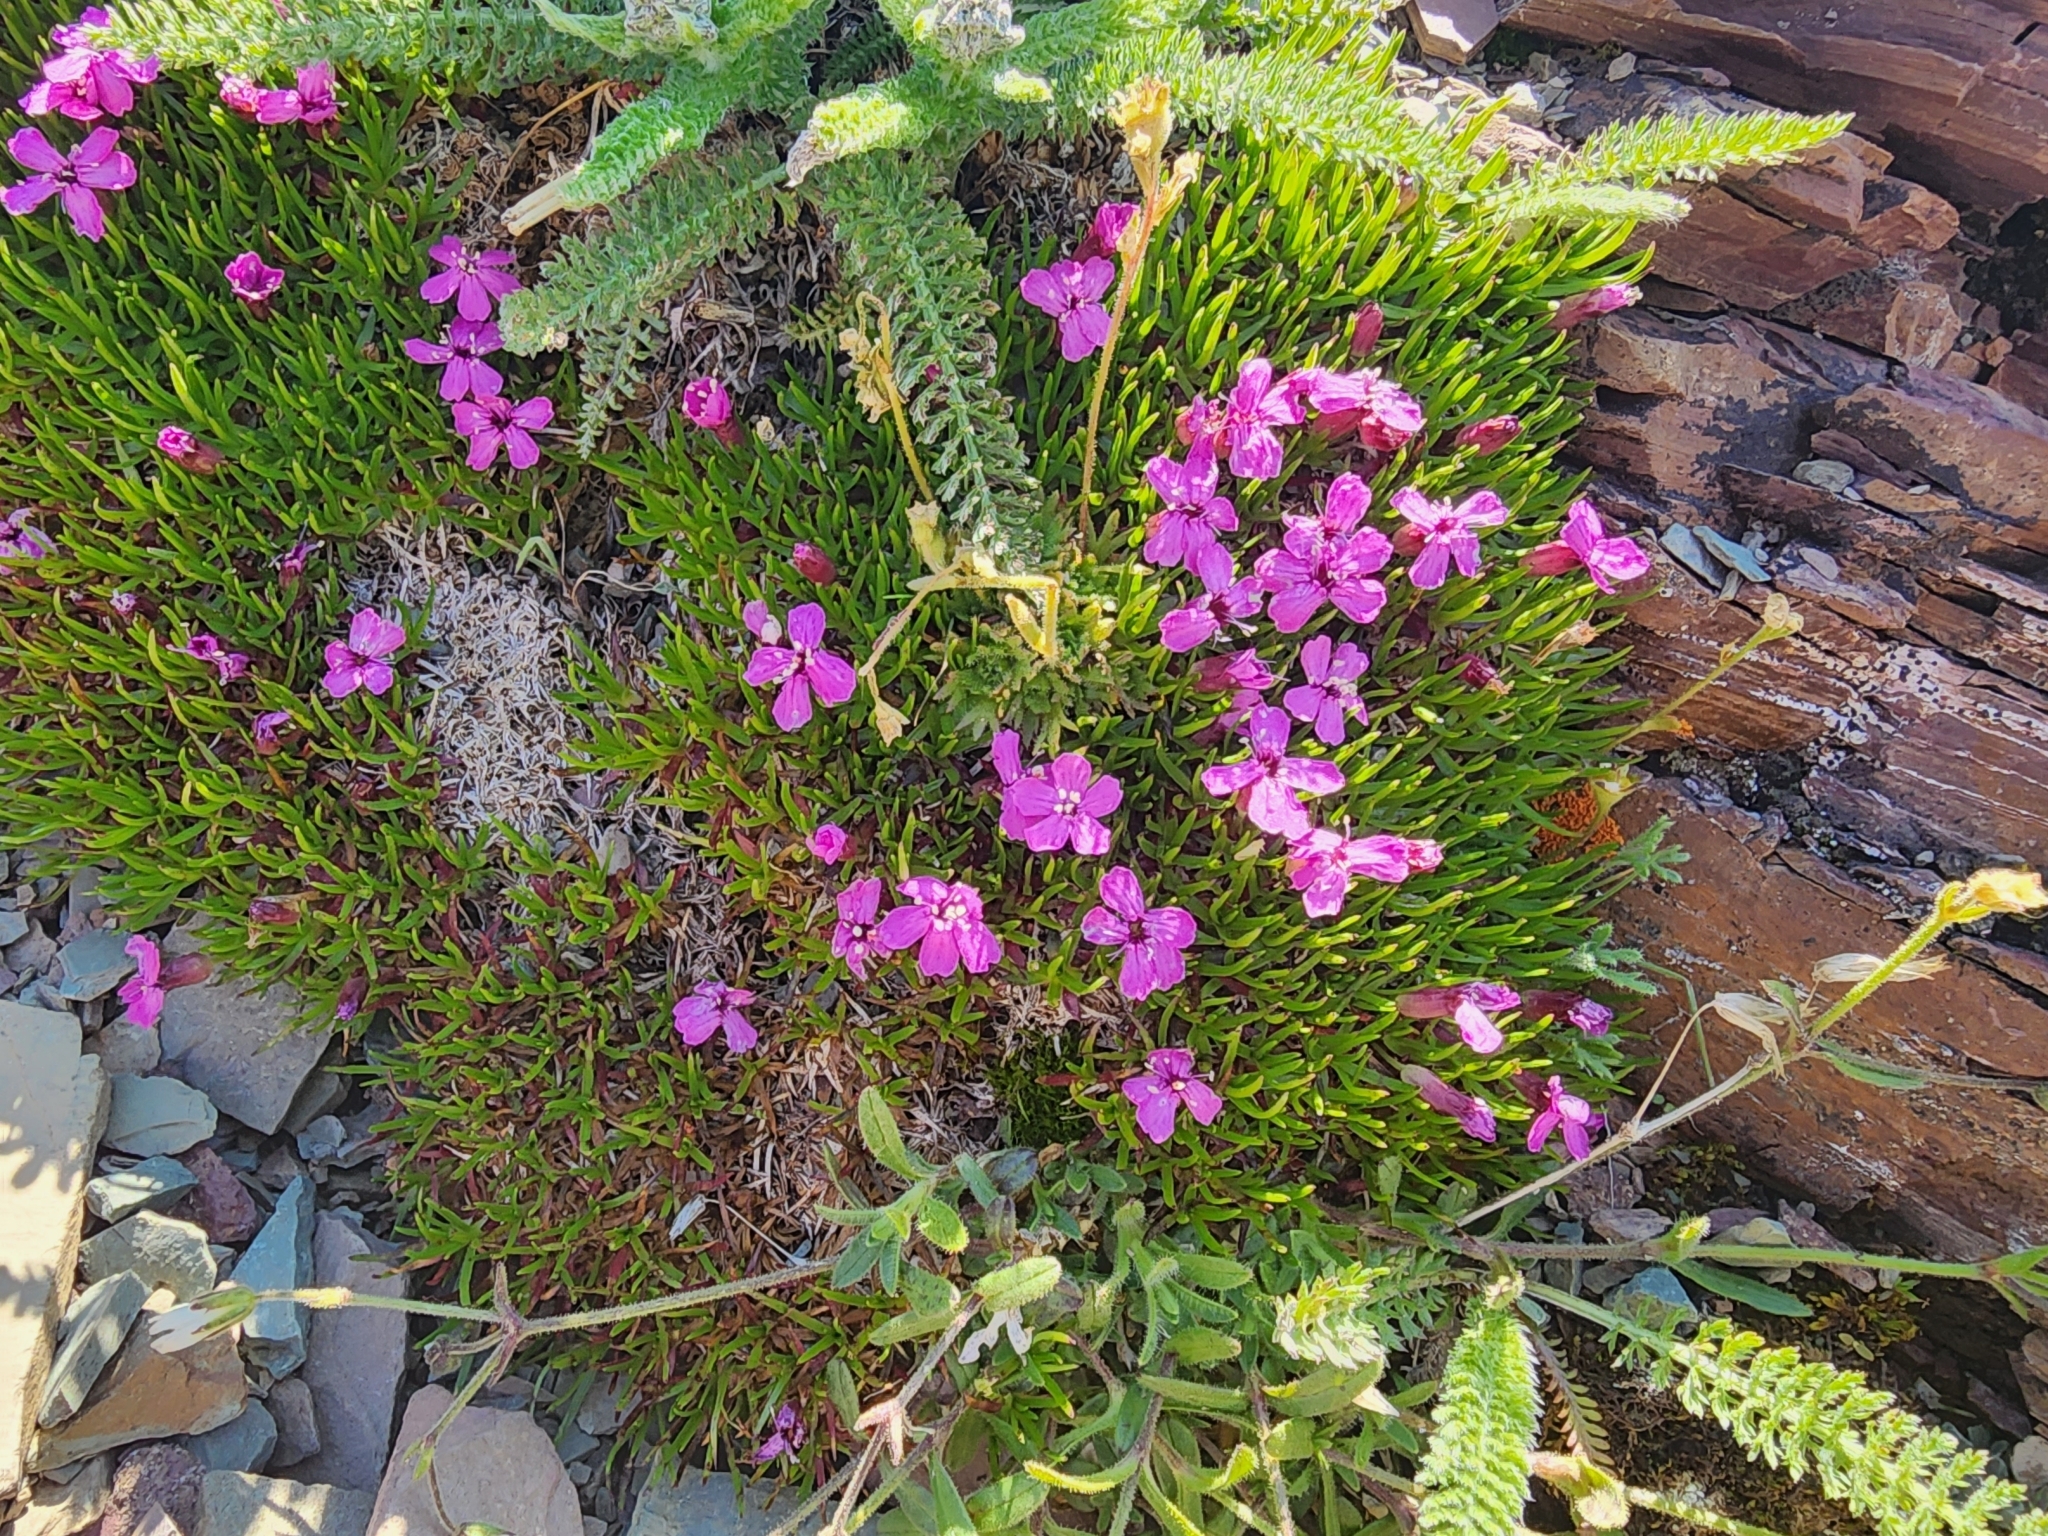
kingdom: Plantae
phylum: Tracheophyta
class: Magnoliopsida
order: Caryophyllales
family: Caryophyllaceae
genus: Silene
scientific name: Silene acaulis
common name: Moss campion
